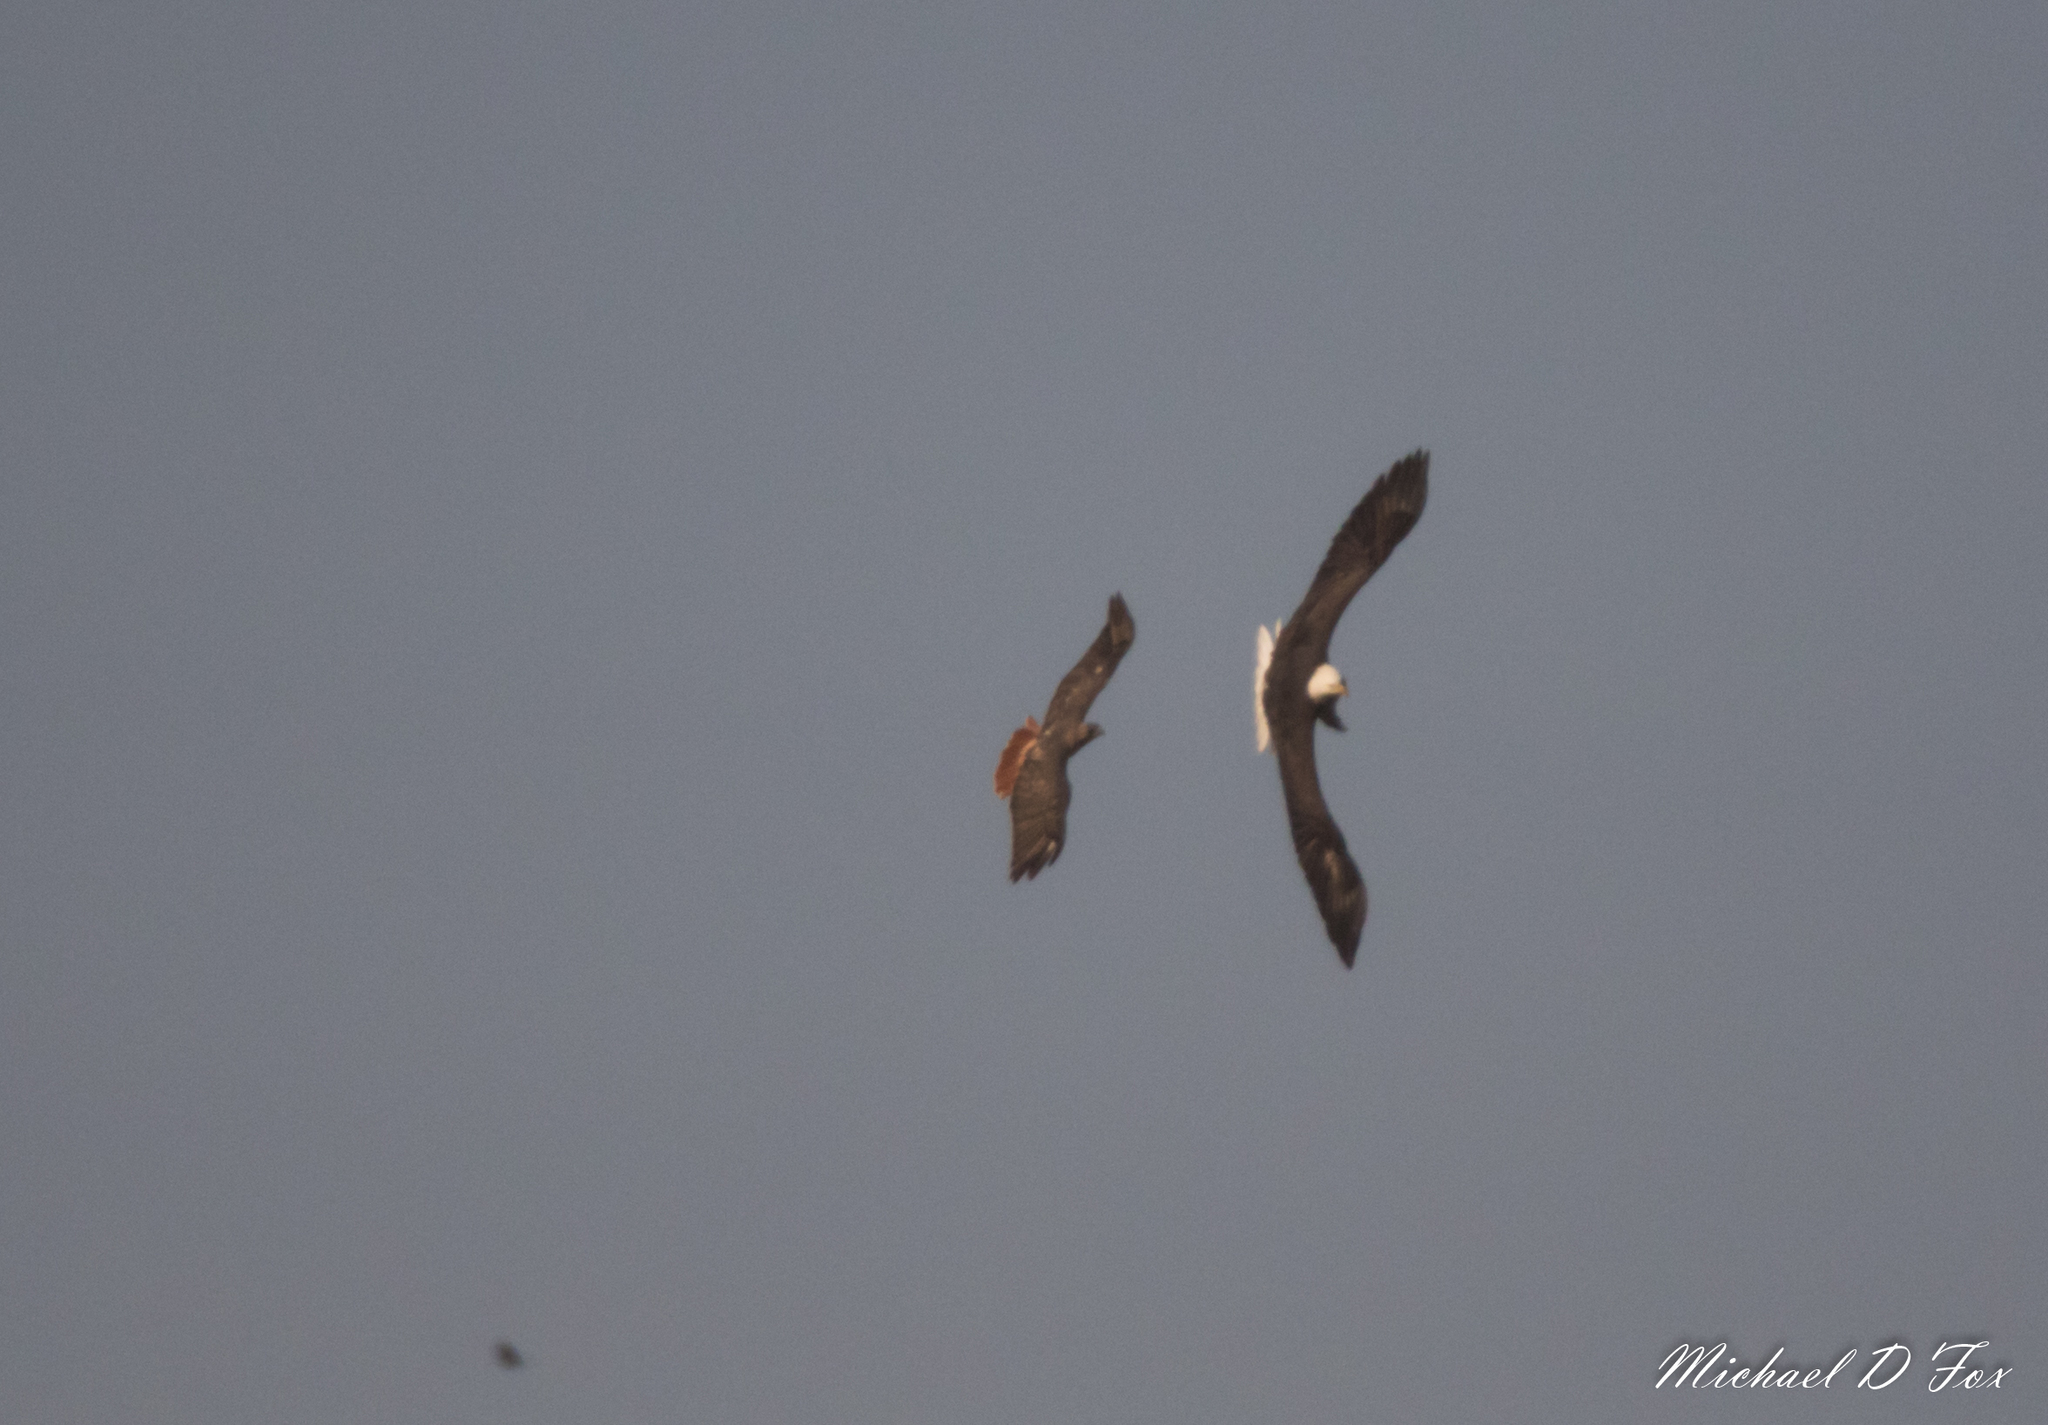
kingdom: Animalia
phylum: Chordata
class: Aves
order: Accipitriformes
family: Accipitridae
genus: Haliaeetus
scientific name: Haliaeetus leucocephalus
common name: Bald eagle
